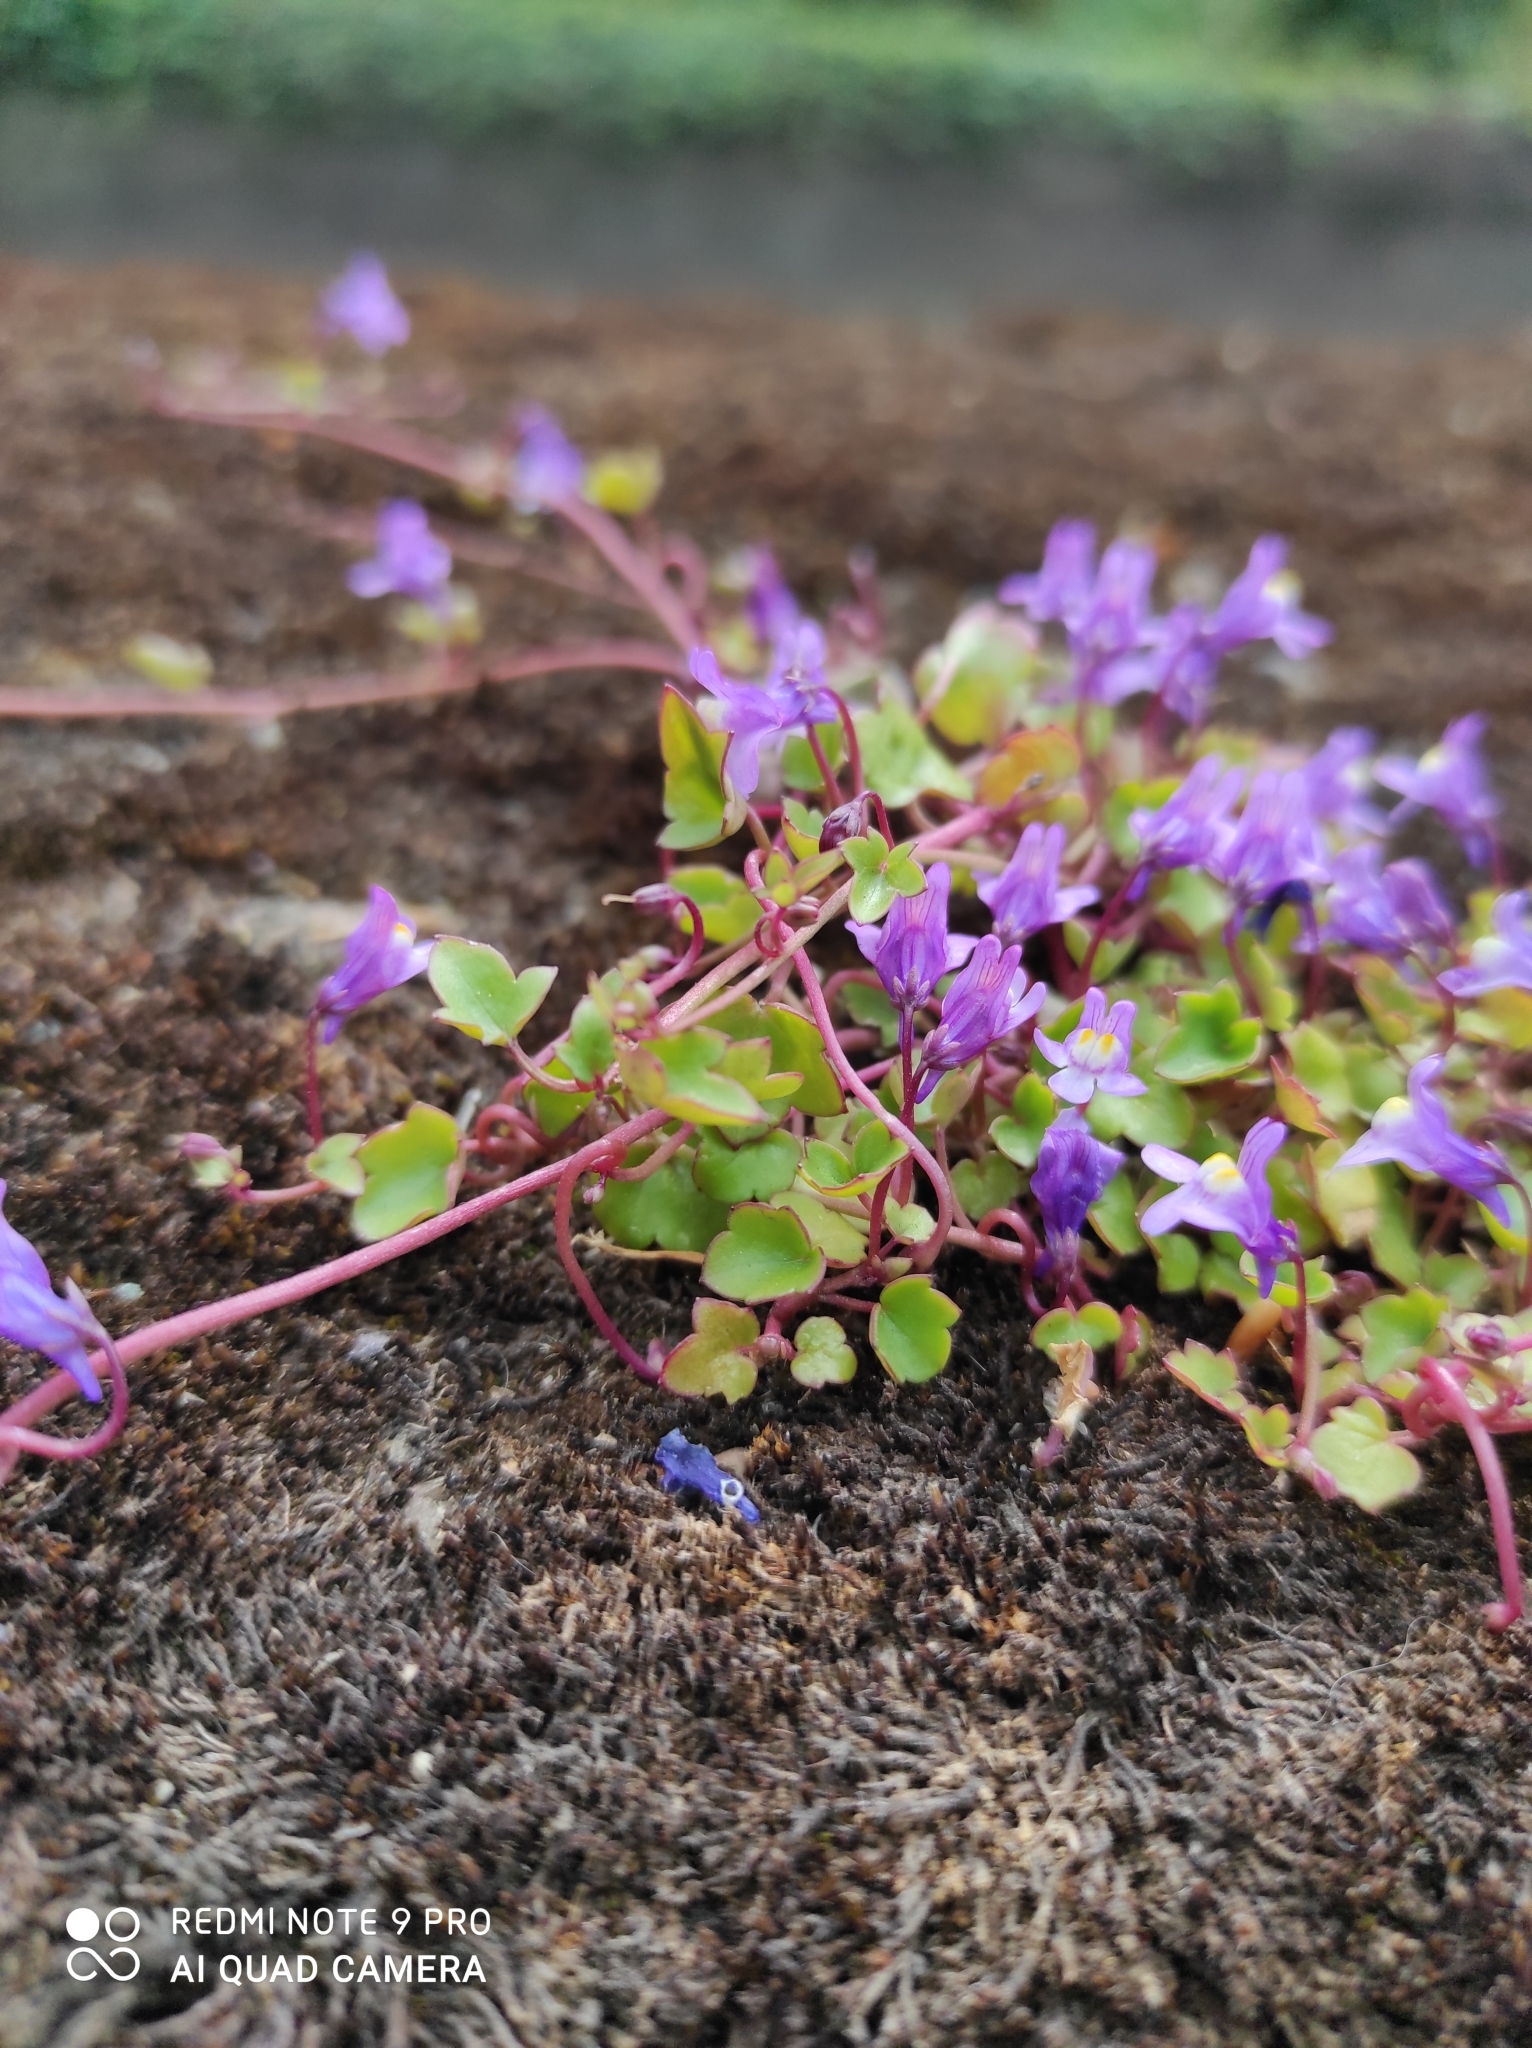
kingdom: Plantae
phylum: Tracheophyta
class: Magnoliopsida
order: Lamiales
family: Plantaginaceae
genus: Cymbalaria
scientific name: Cymbalaria muralis
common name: Ivy-leaved toadflax
